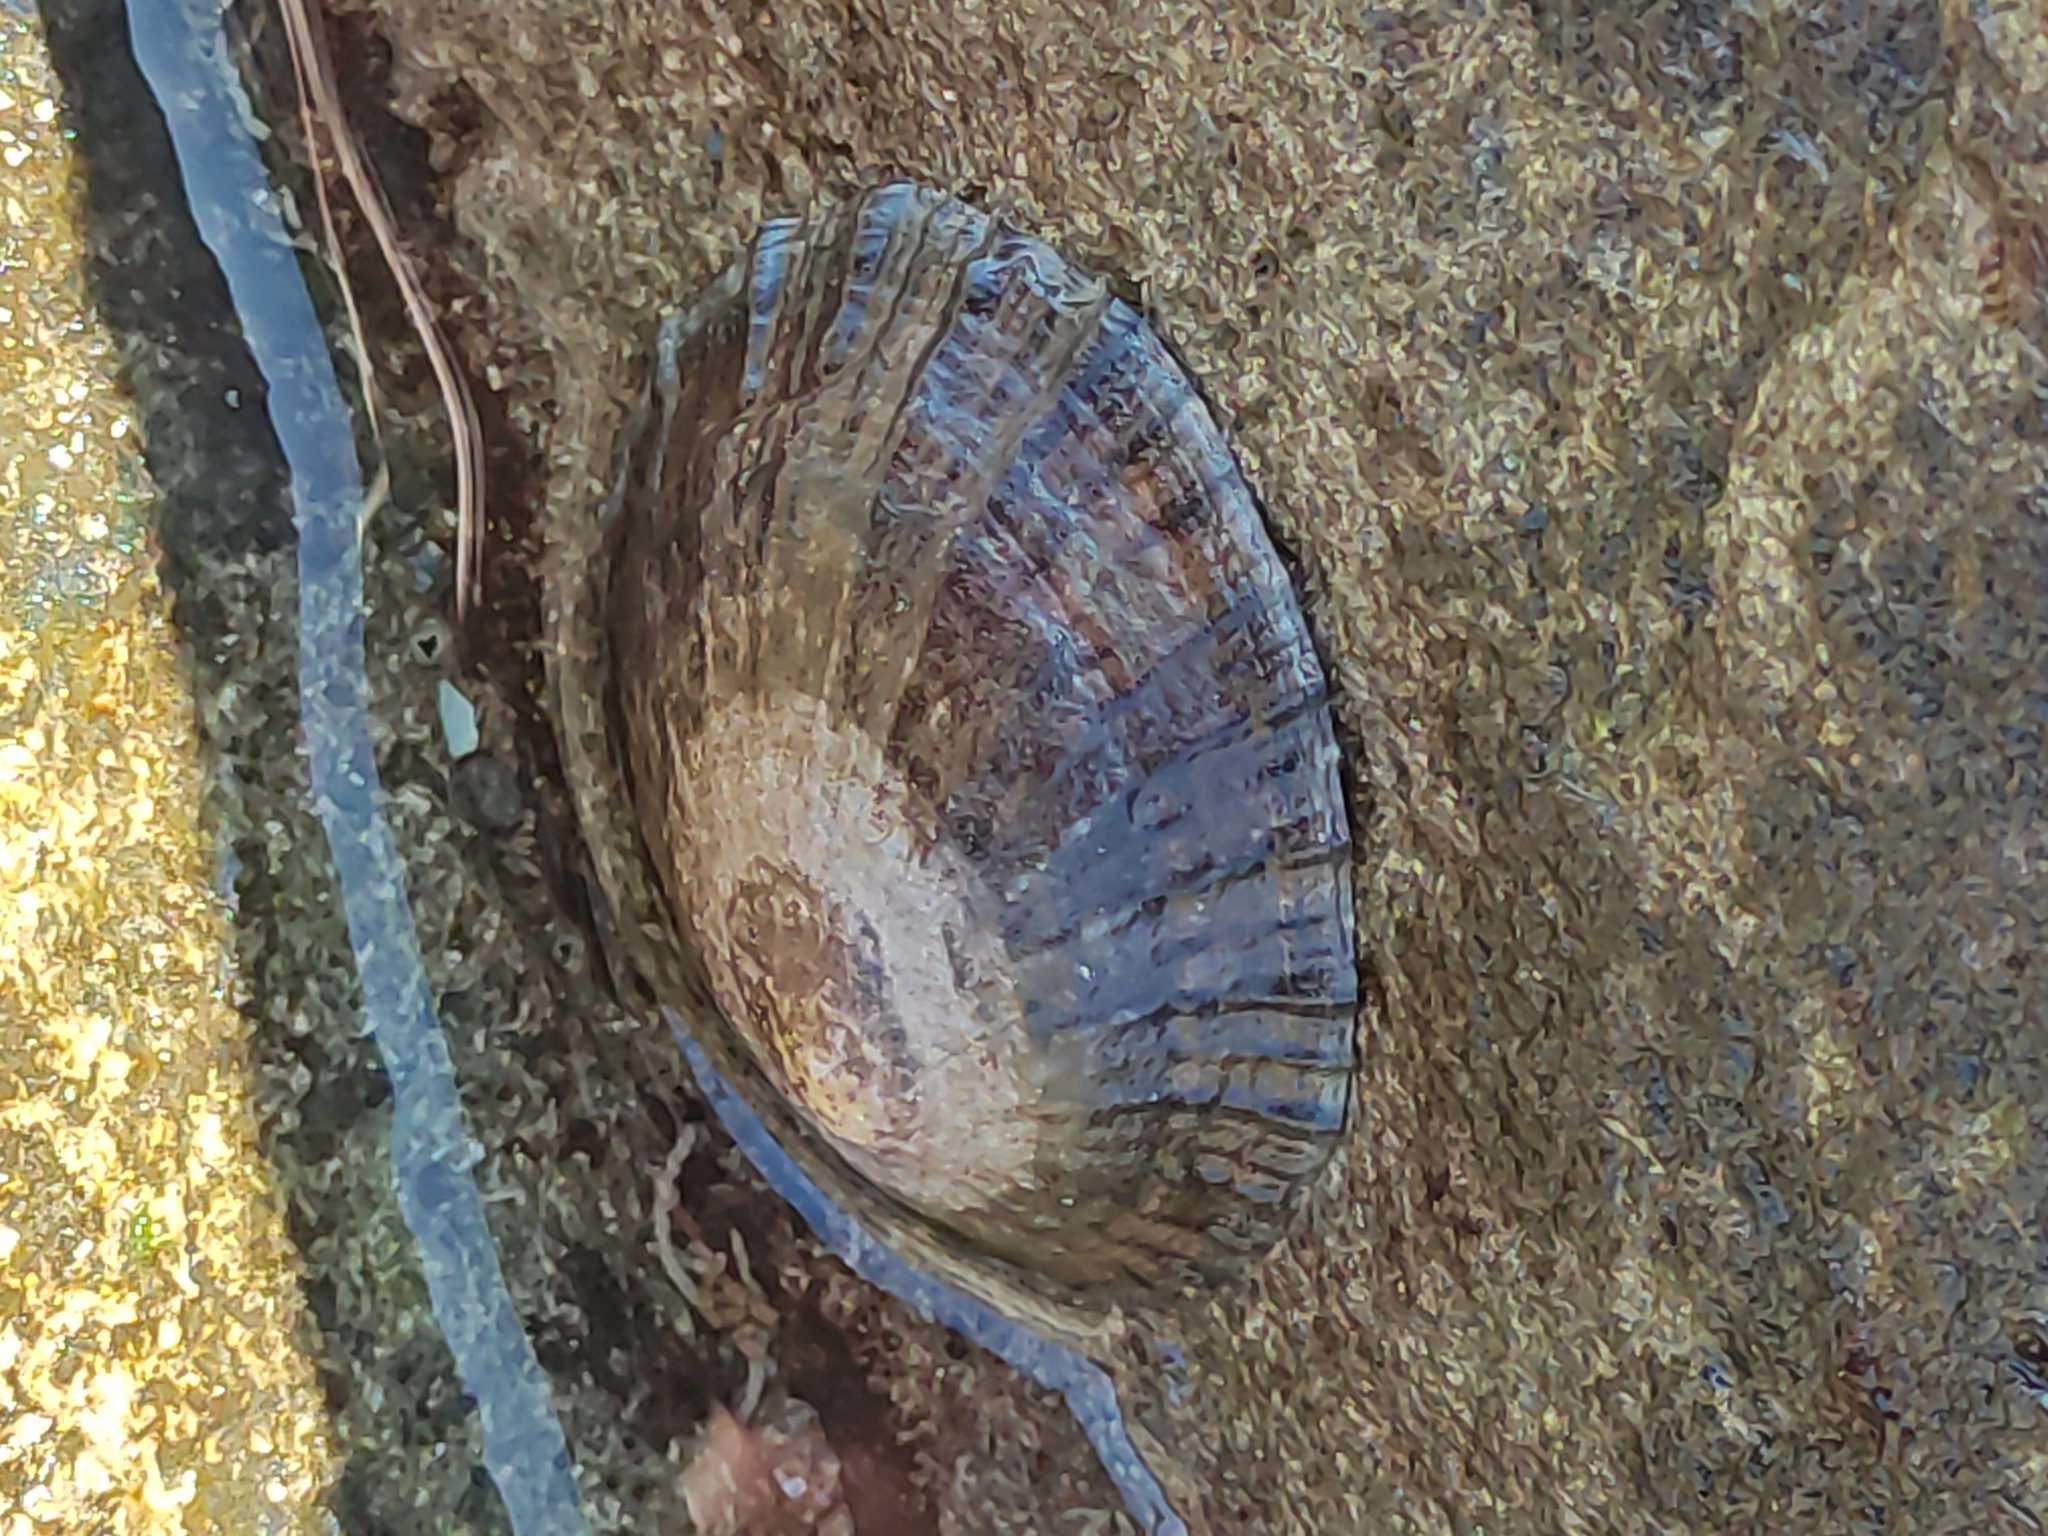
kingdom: Animalia
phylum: Mollusca
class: Gastropoda
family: Nacellidae
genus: Cellana
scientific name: Cellana radians
